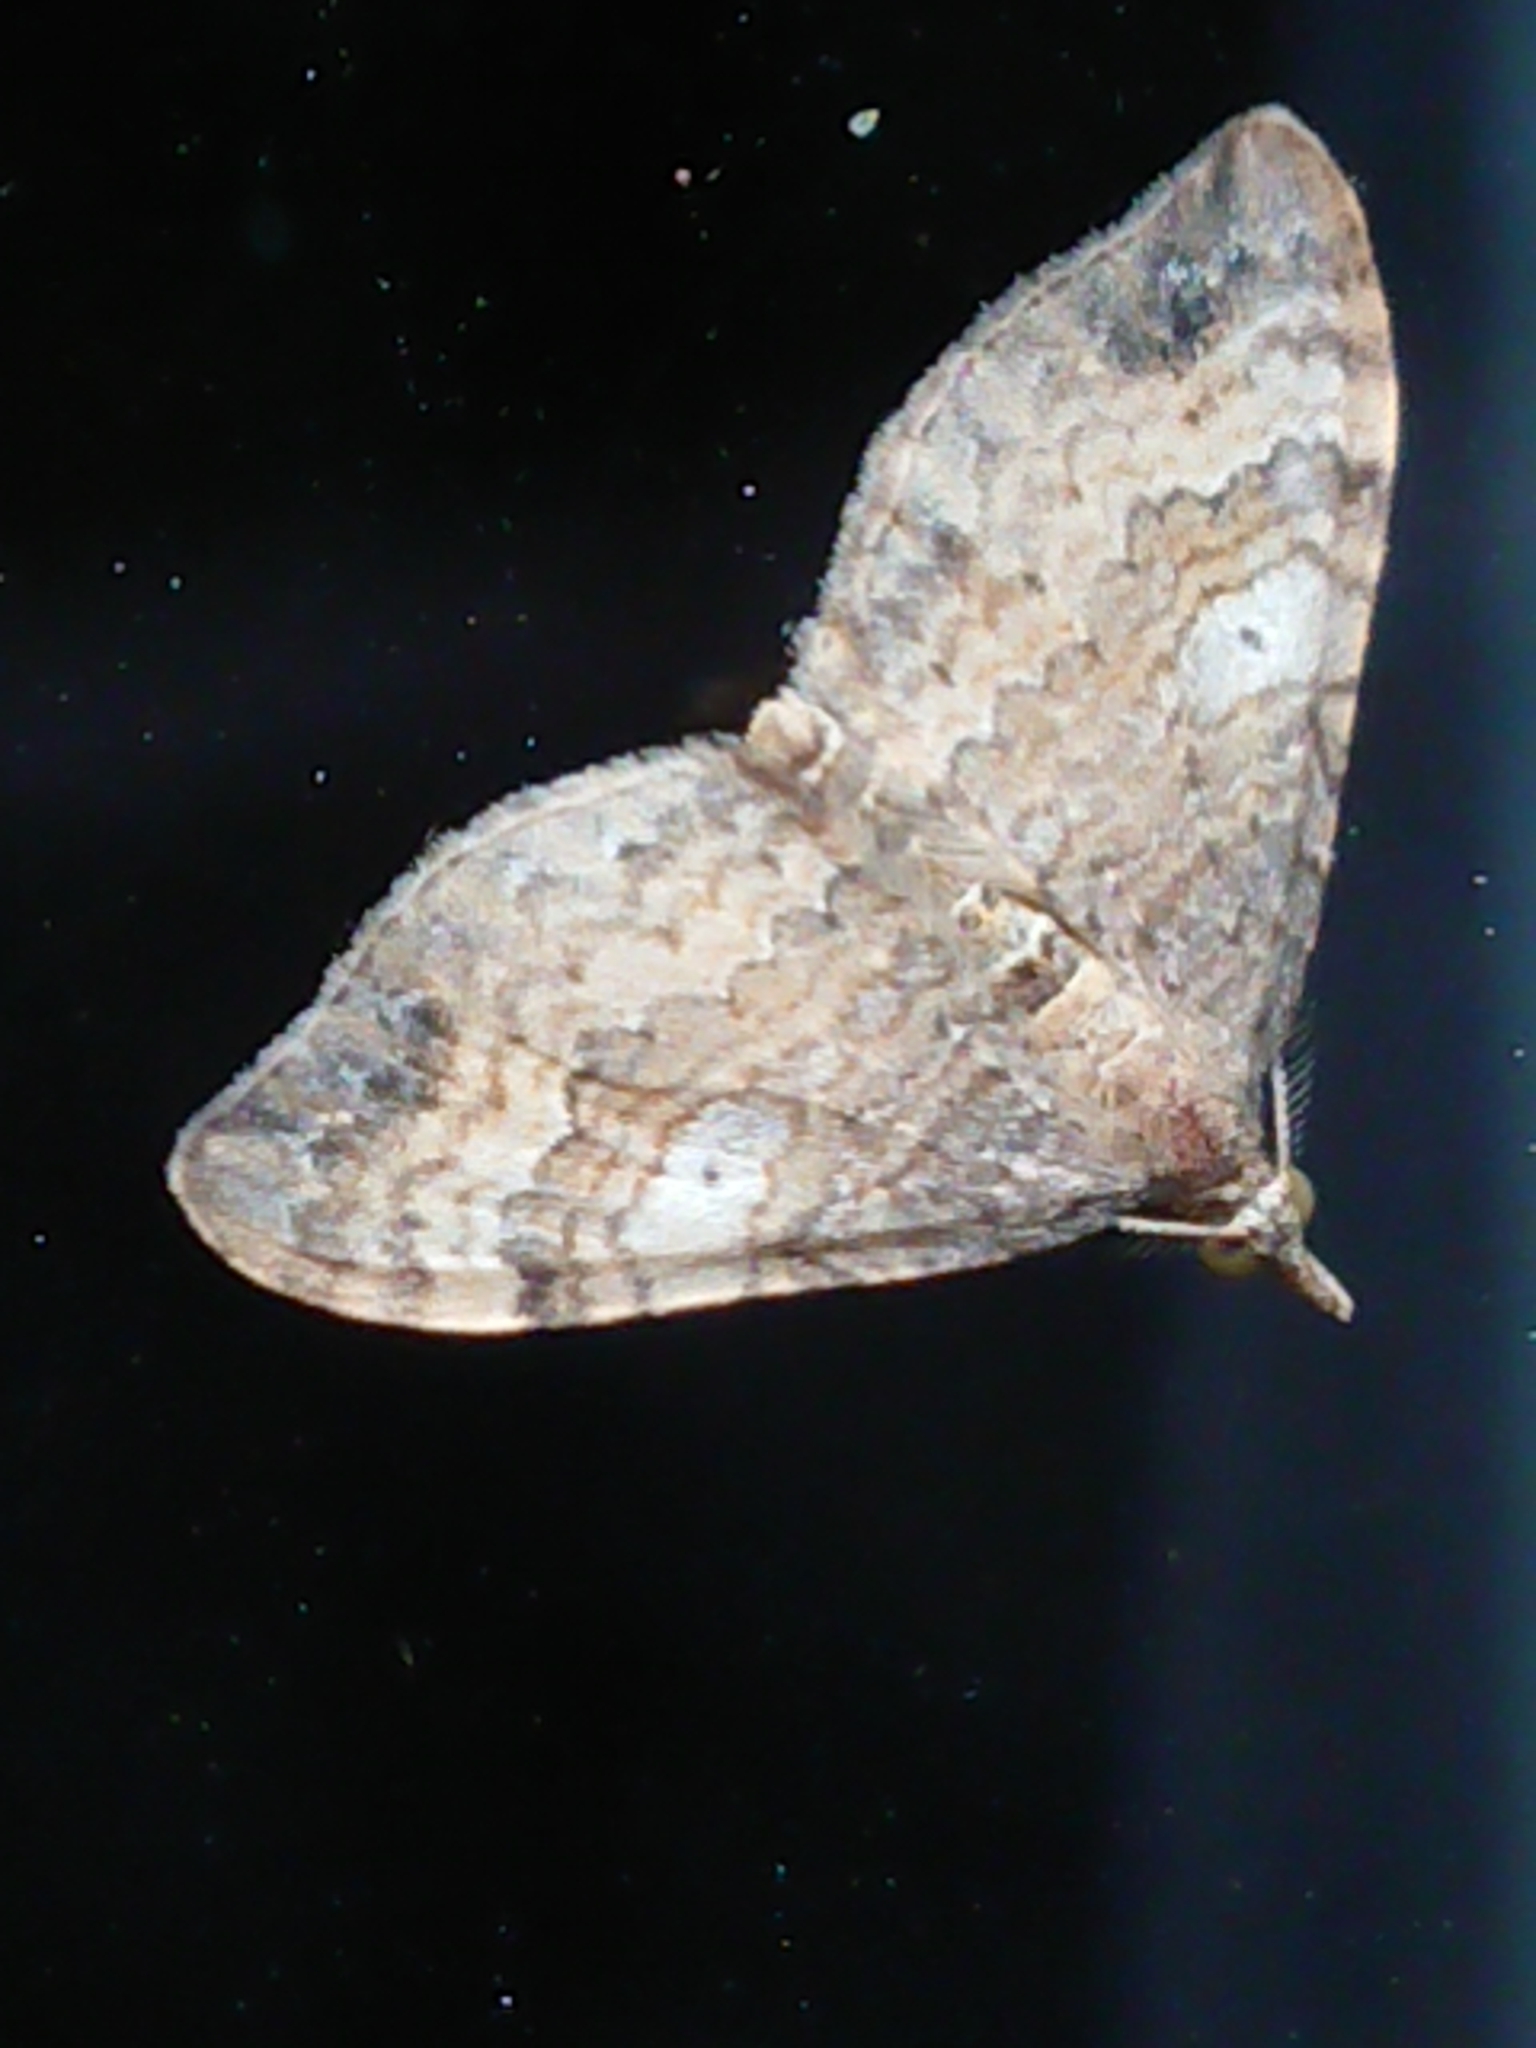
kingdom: Animalia
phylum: Arthropoda
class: Insecta
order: Lepidoptera
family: Geometridae
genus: Homodotis
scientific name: Homodotis megaspilata
